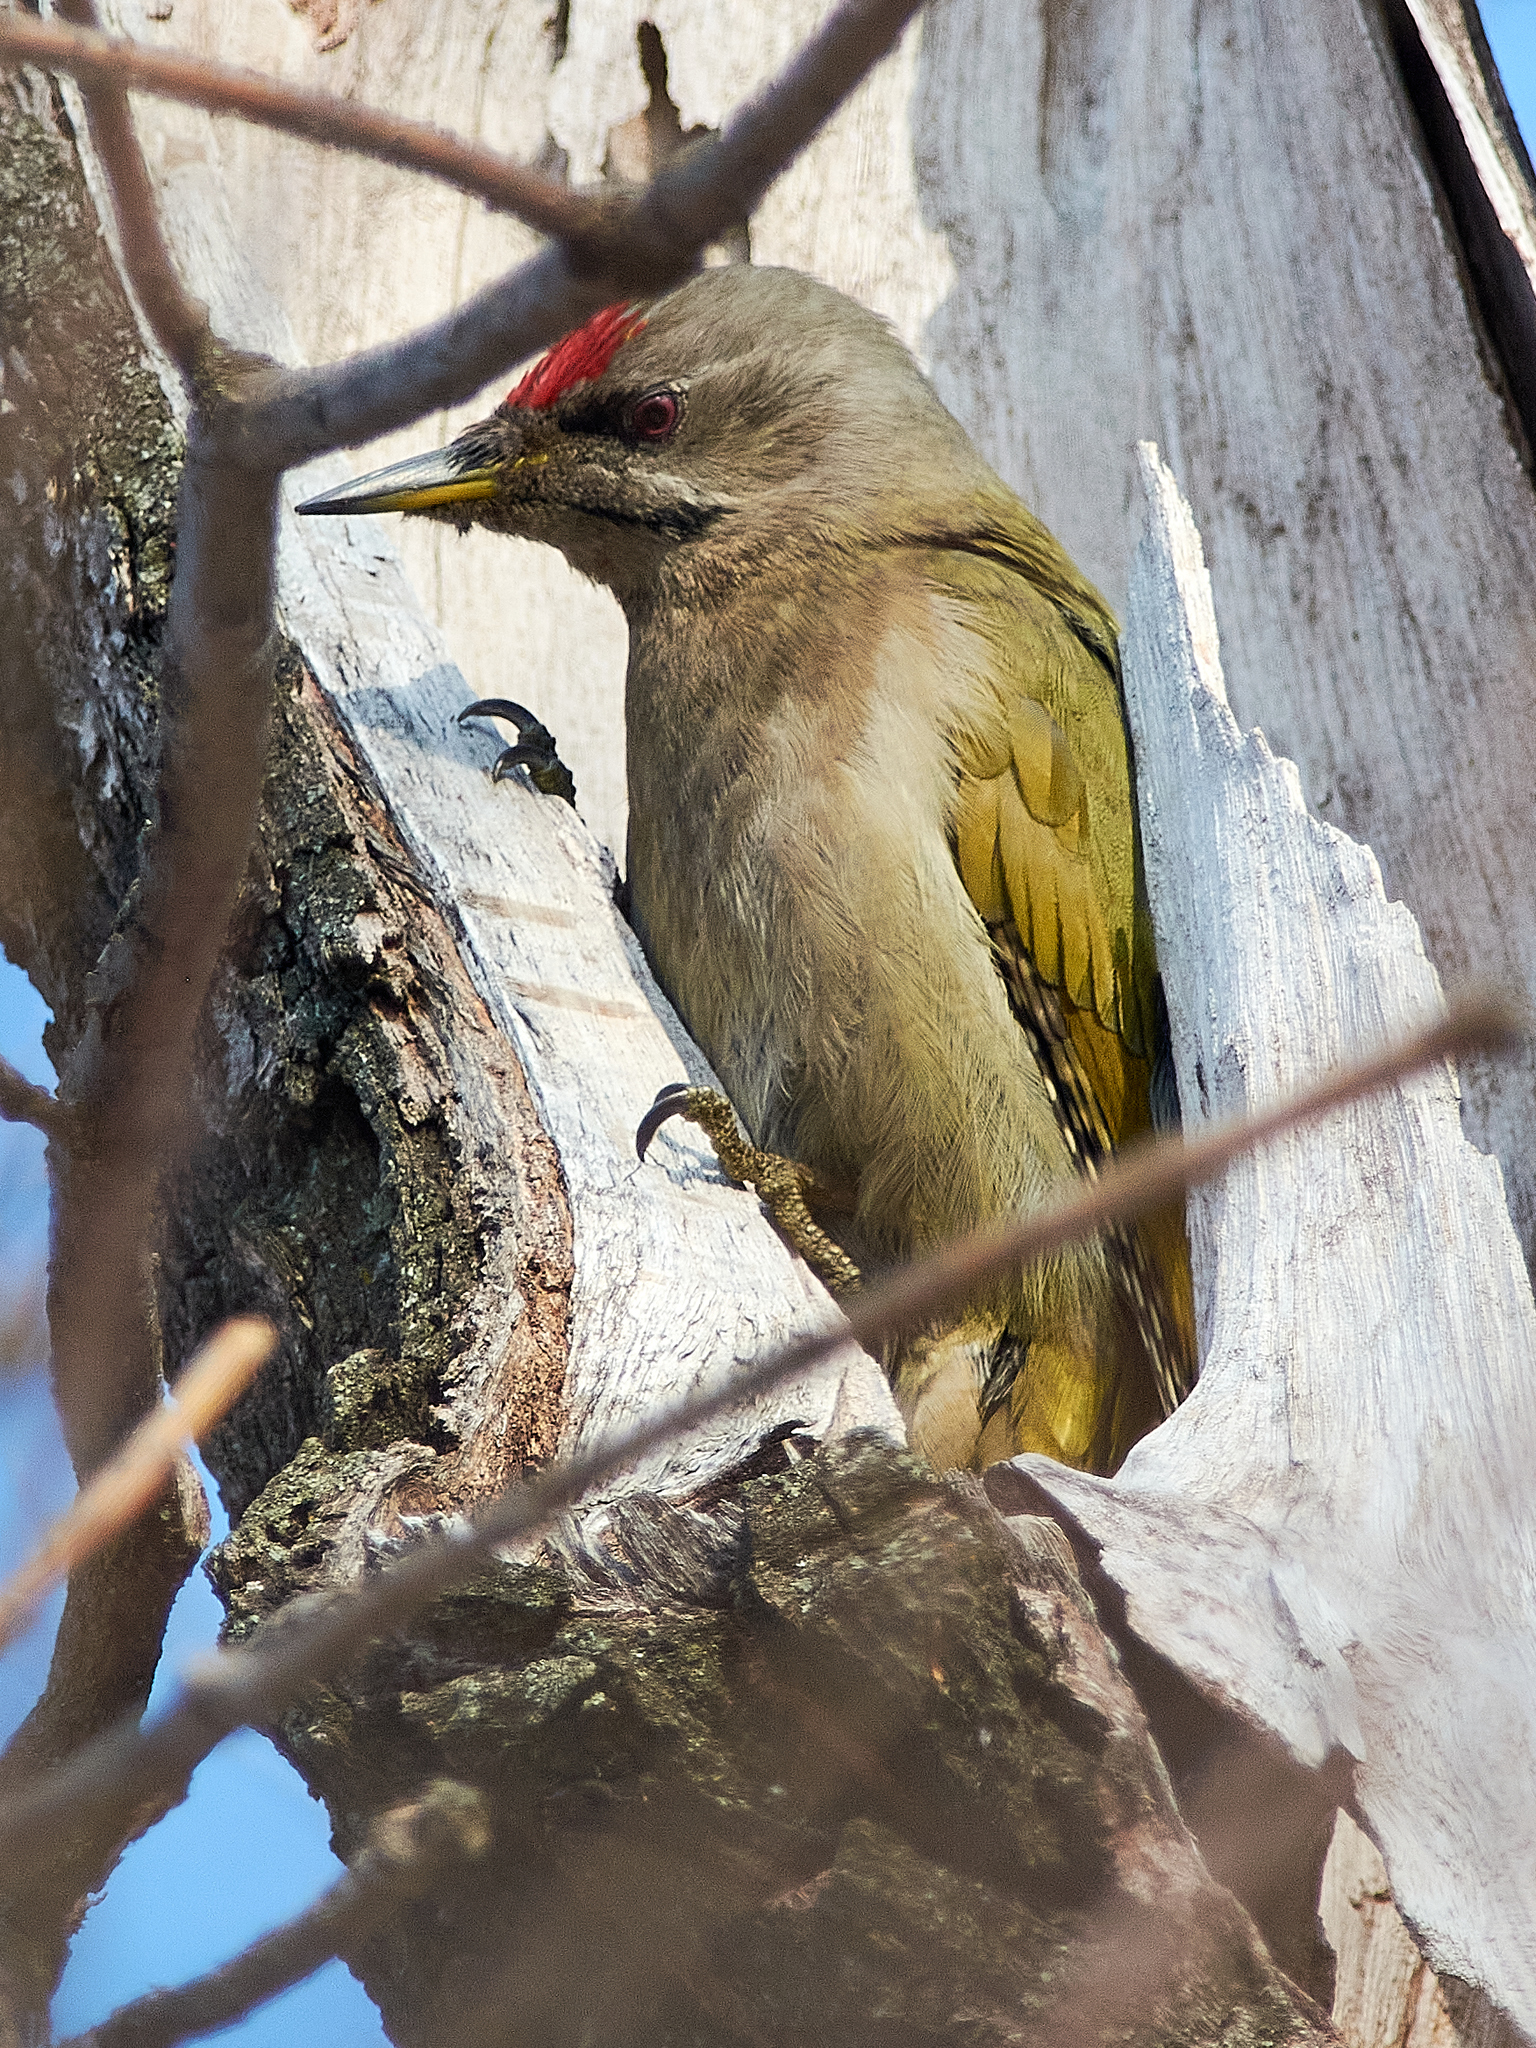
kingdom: Animalia
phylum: Chordata
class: Aves
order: Piciformes
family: Picidae
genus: Picus
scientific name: Picus canus
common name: Grey-headed woodpecker
